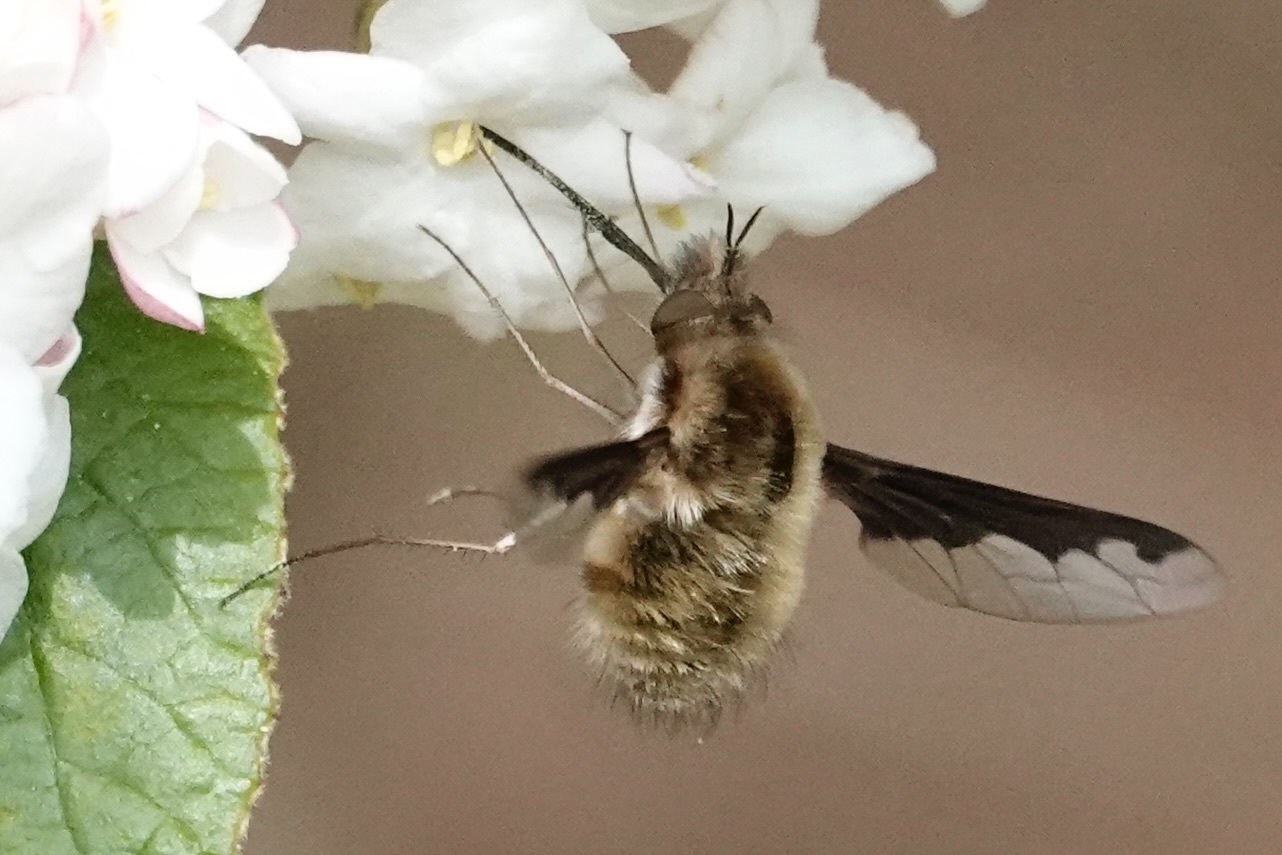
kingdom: Animalia
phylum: Arthropoda
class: Insecta
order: Diptera
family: Bombyliidae
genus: Bombylius
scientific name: Bombylius major
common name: Bee fly
